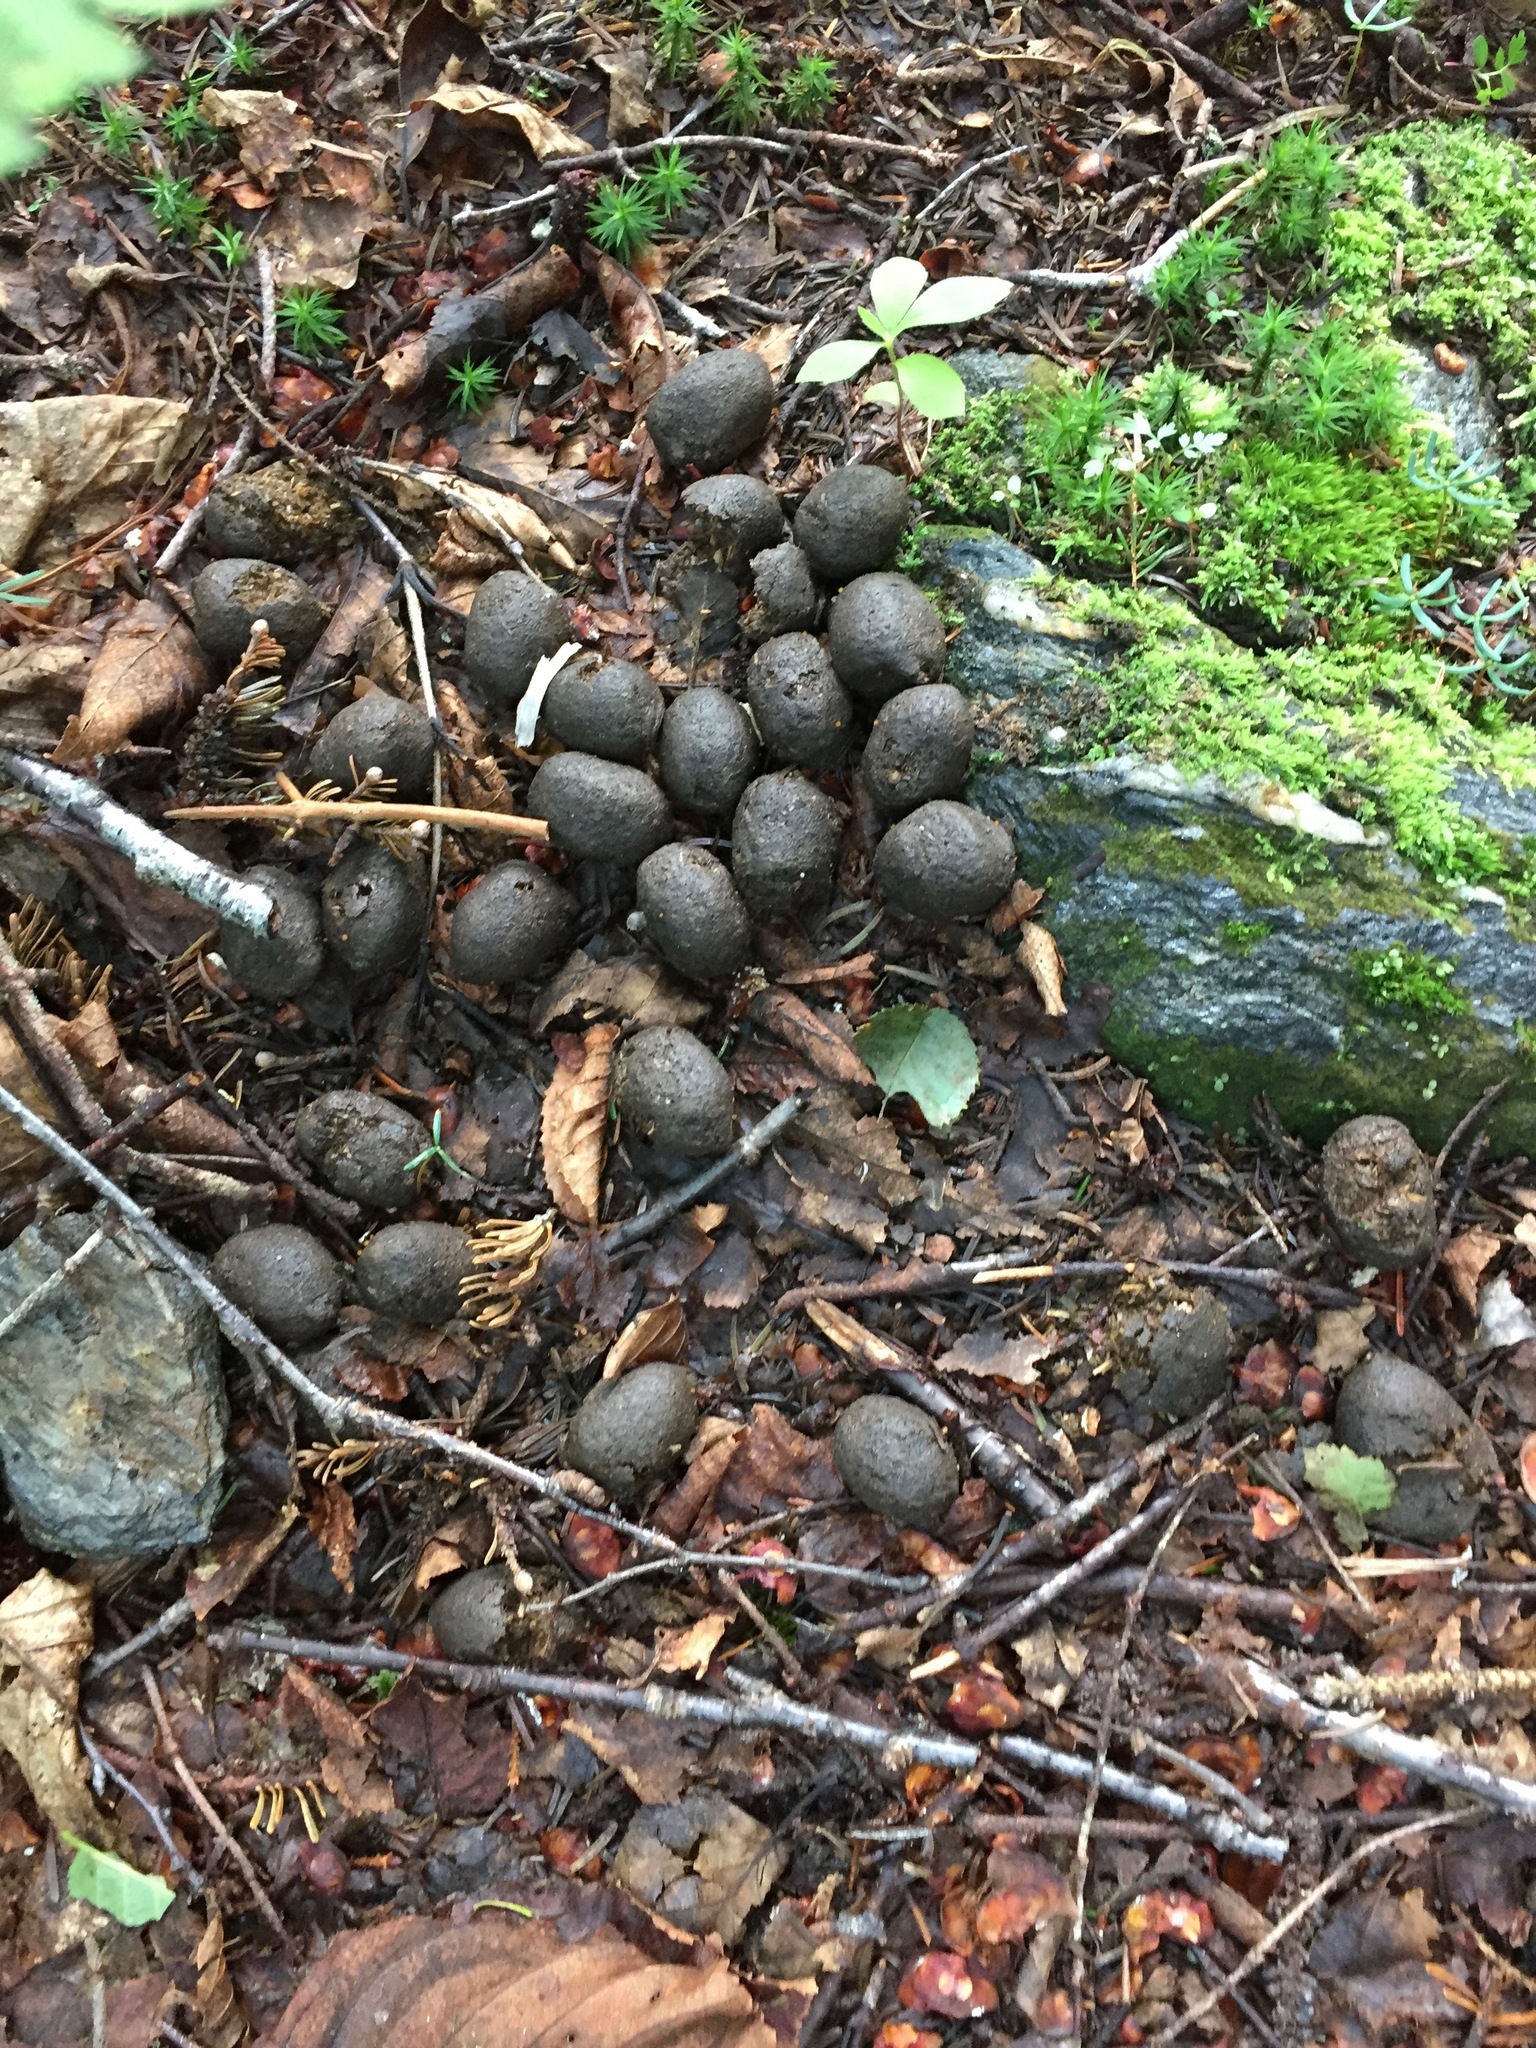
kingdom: Animalia
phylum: Chordata
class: Mammalia
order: Artiodactyla
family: Cervidae
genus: Alces
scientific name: Alces alces
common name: Moose
